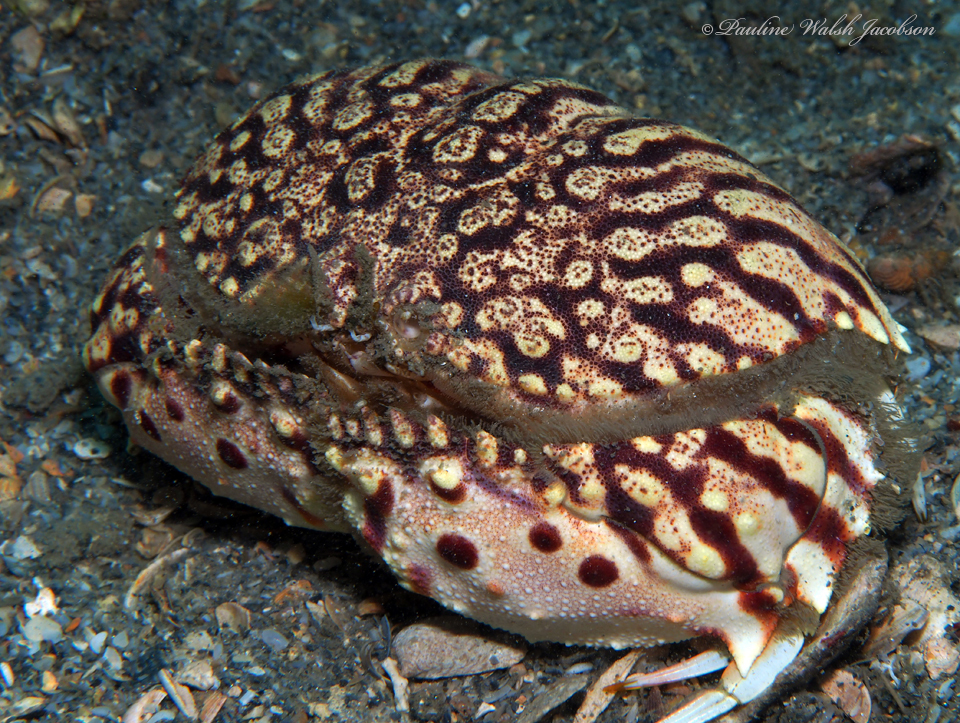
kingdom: Animalia
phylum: Arthropoda
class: Malacostraca
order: Decapoda
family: Calappidae
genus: Calappa
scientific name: Calappa flammea
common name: Flamed box crab
